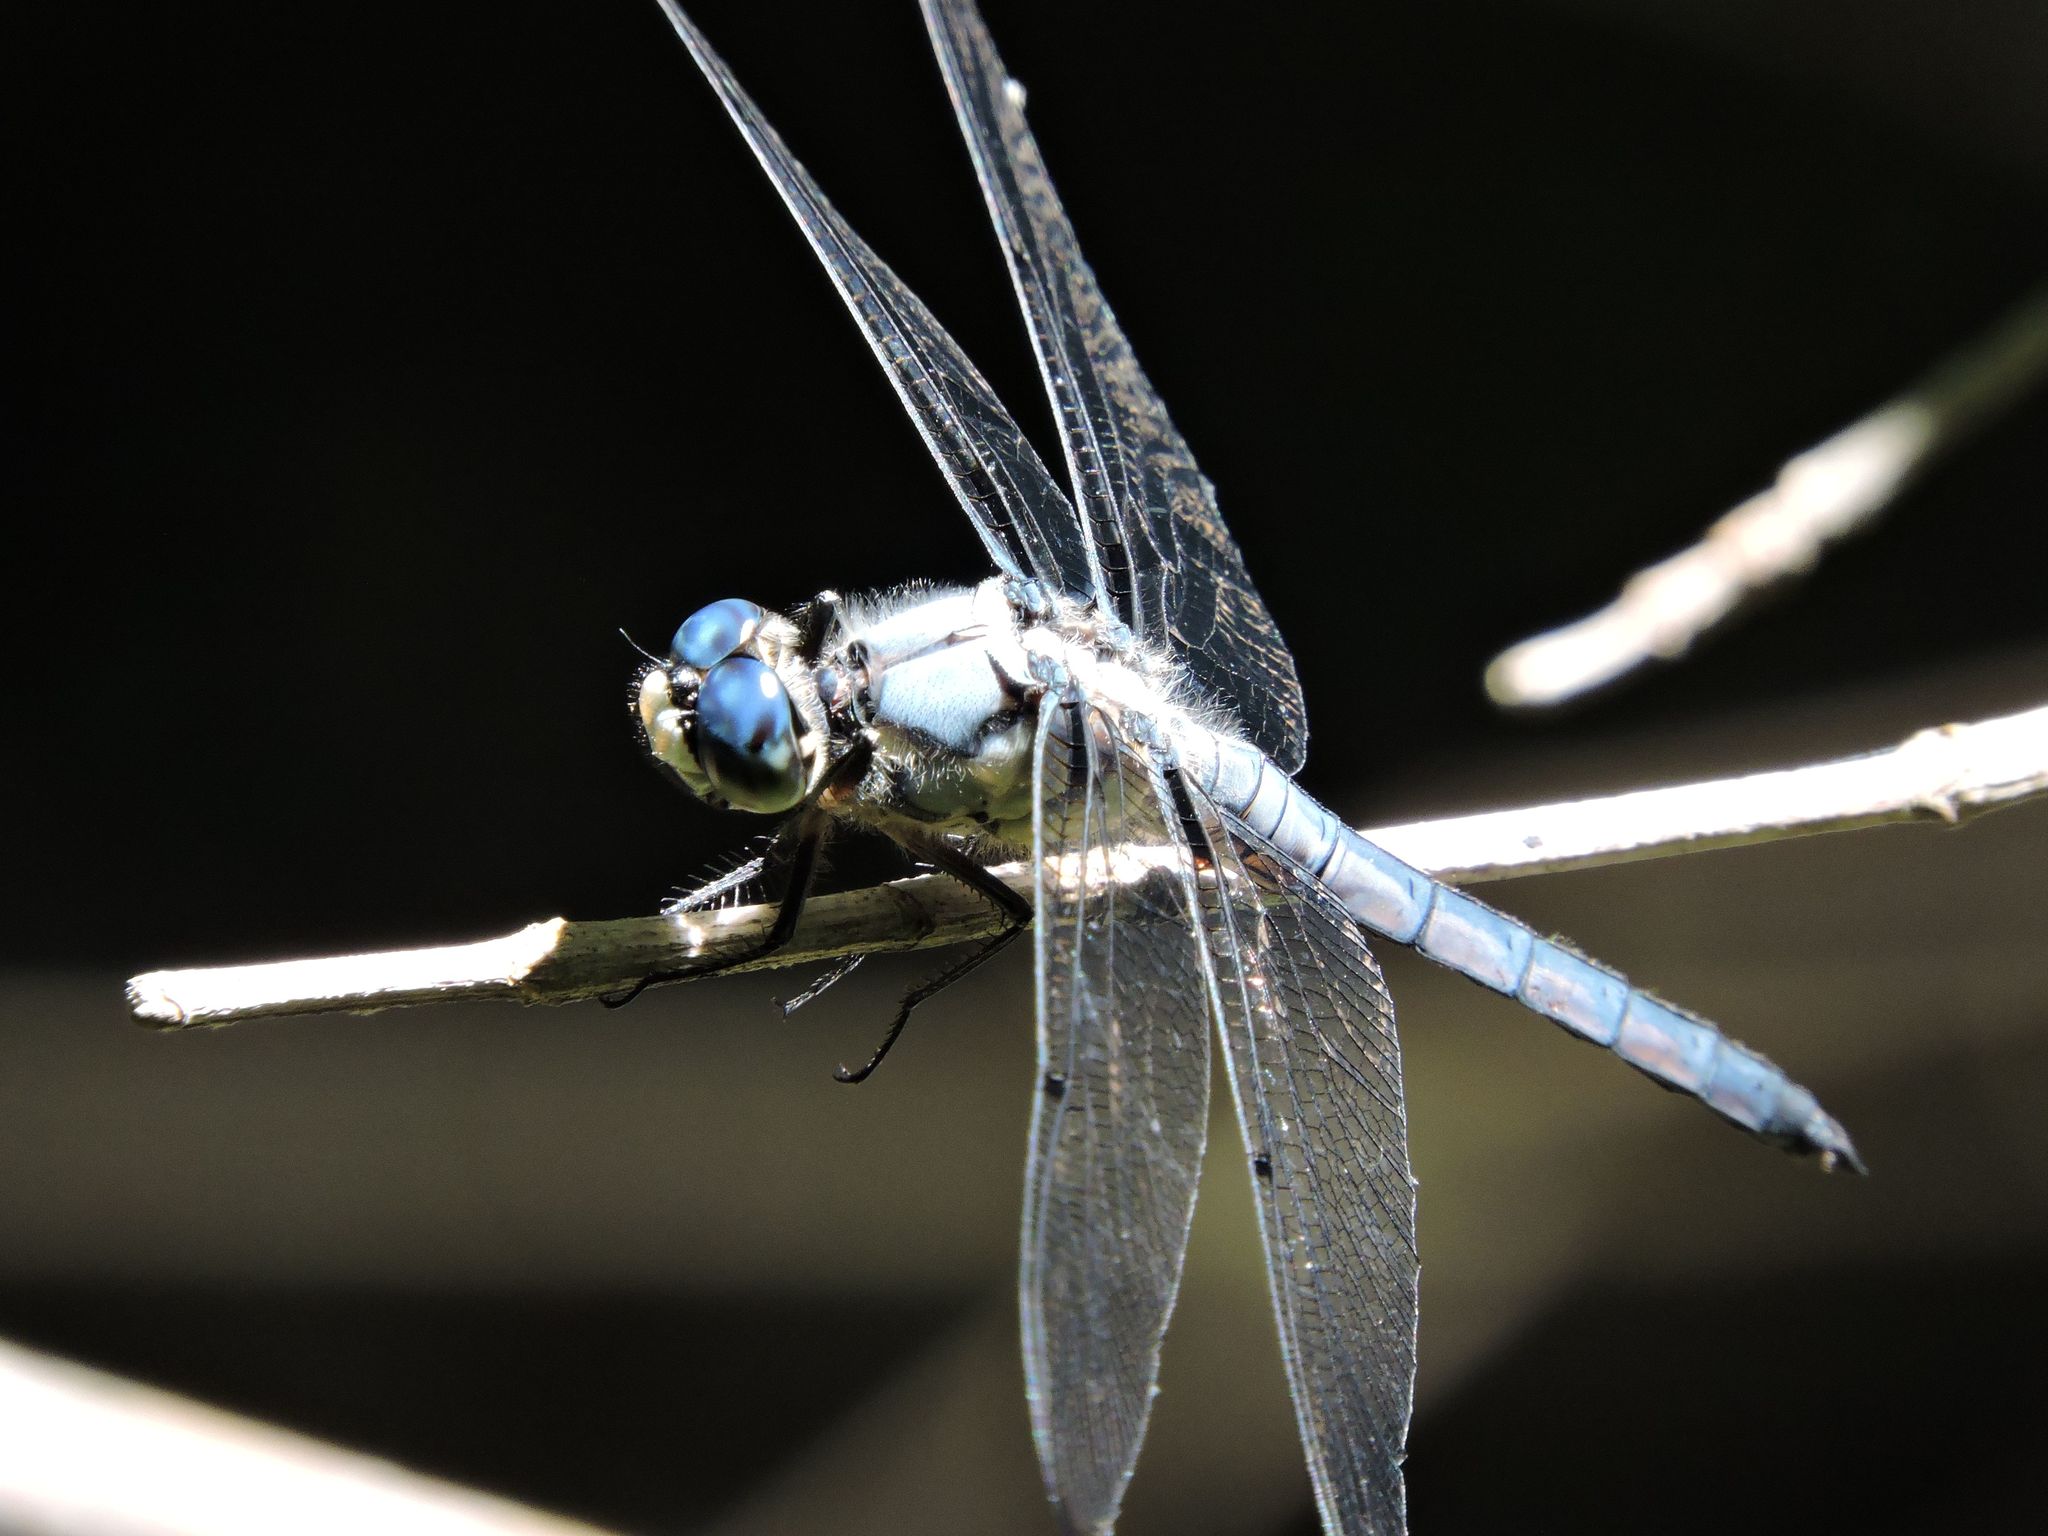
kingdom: Animalia
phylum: Arthropoda
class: Insecta
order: Odonata
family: Libellulidae
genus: Libellula
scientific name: Libellula vibrans
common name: Great blue skimmer
